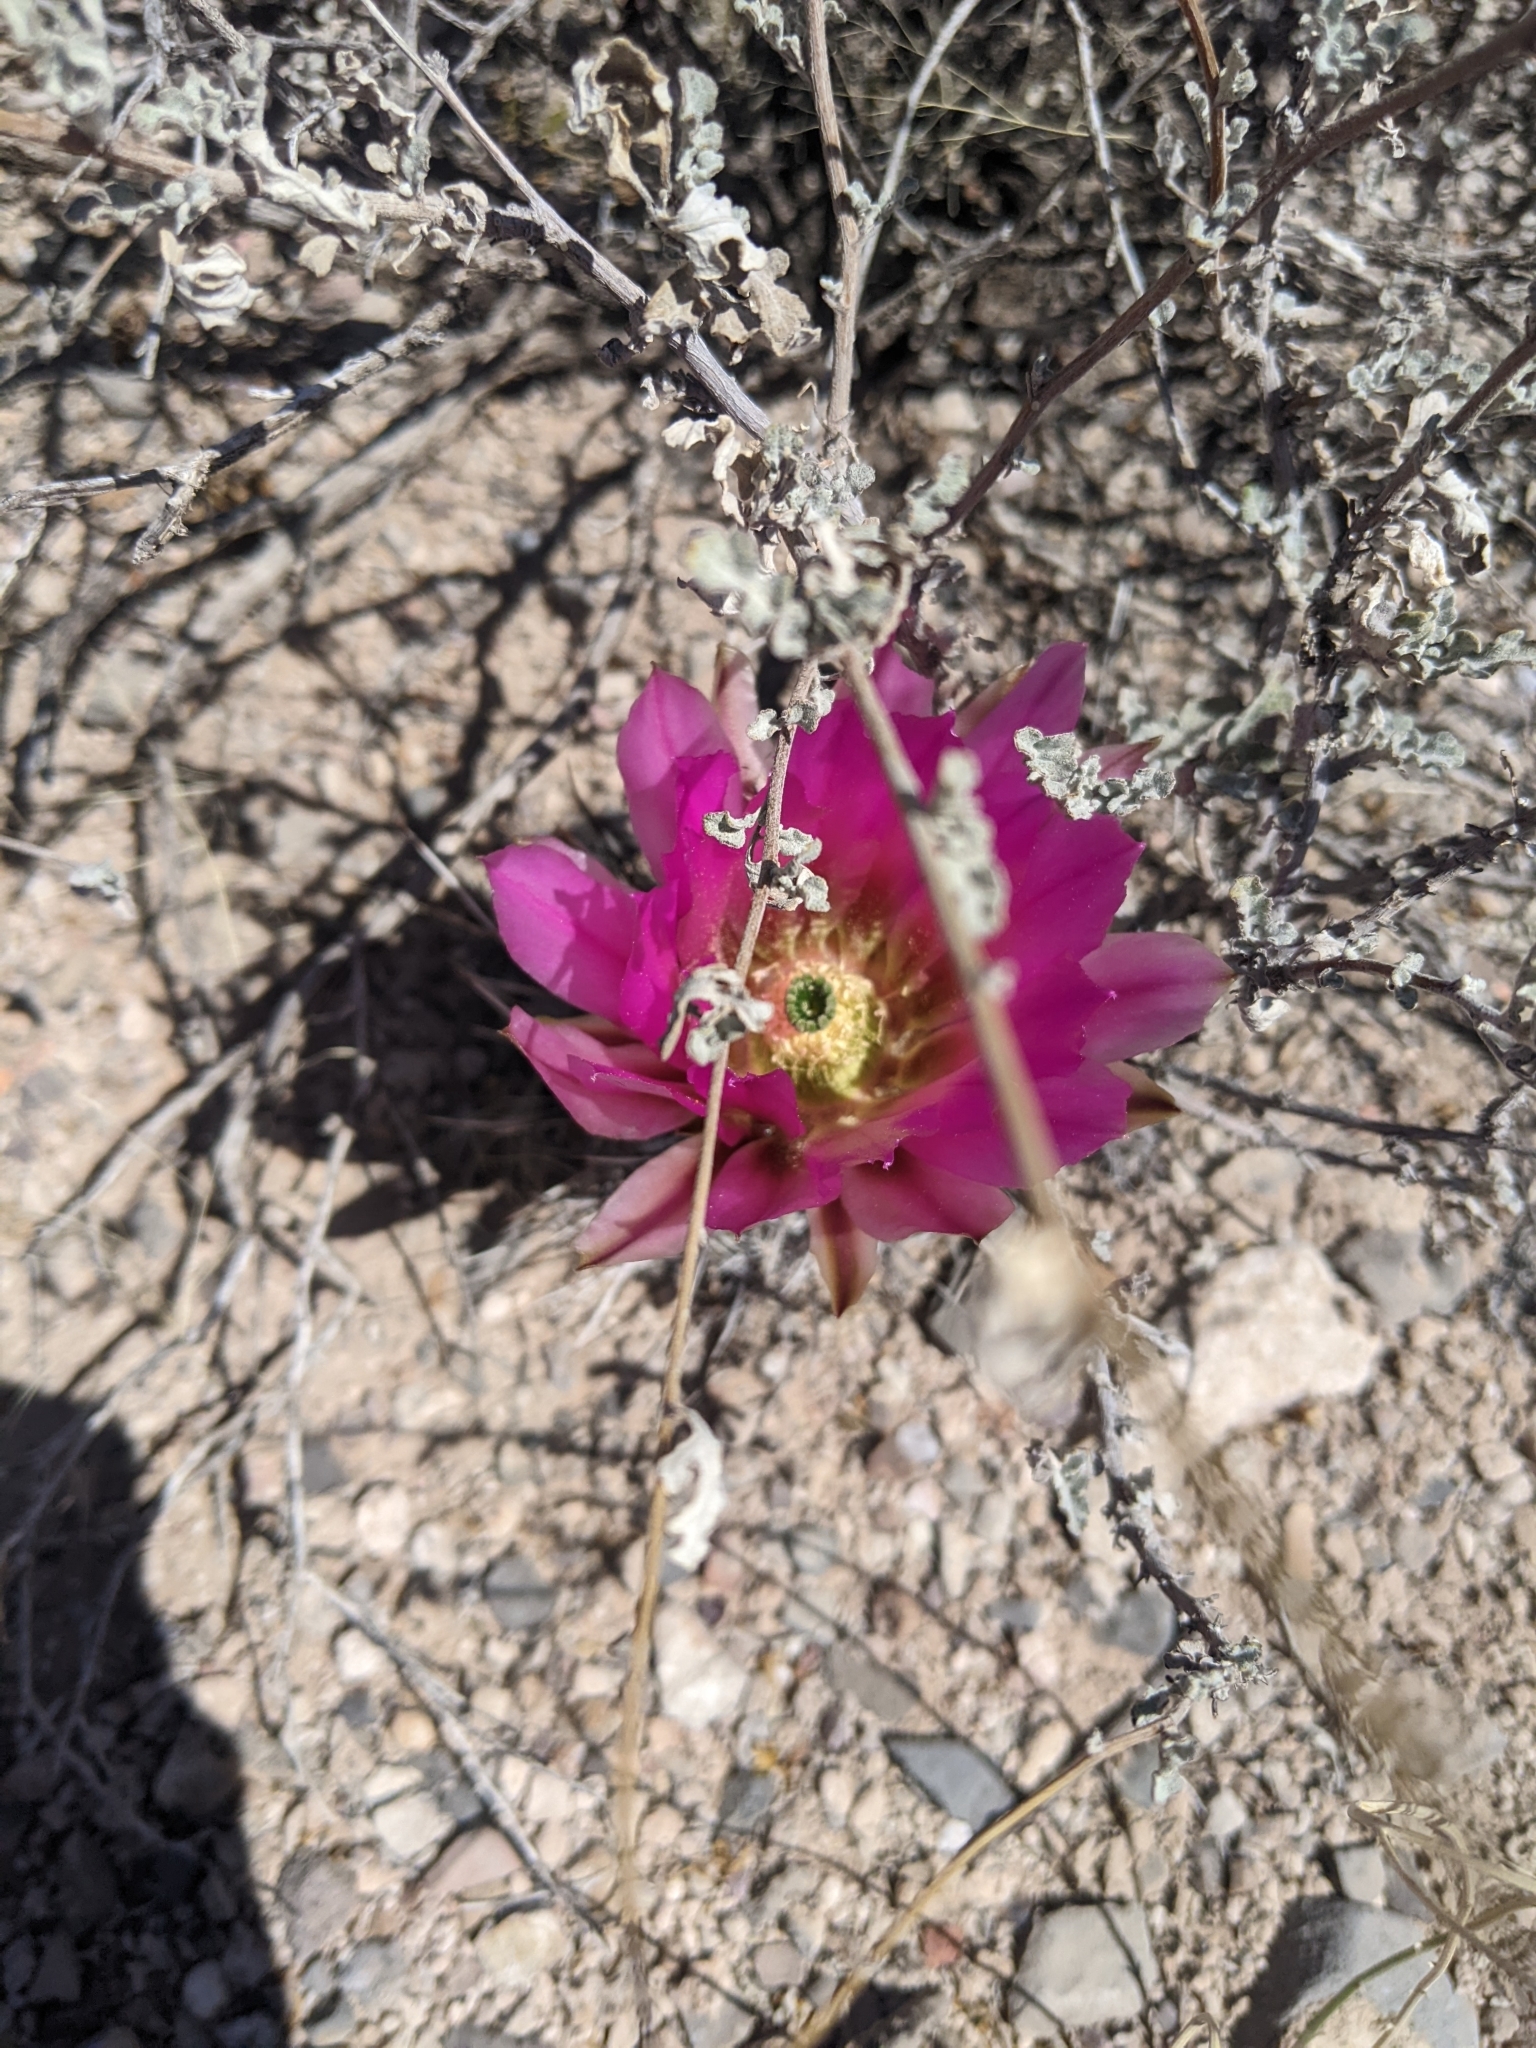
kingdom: Plantae
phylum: Tracheophyta
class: Magnoliopsida
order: Caryophyllales
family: Cactaceae
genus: Echinocereus
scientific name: Echinocereus fendleri
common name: Fendler's hedgehog cactus
